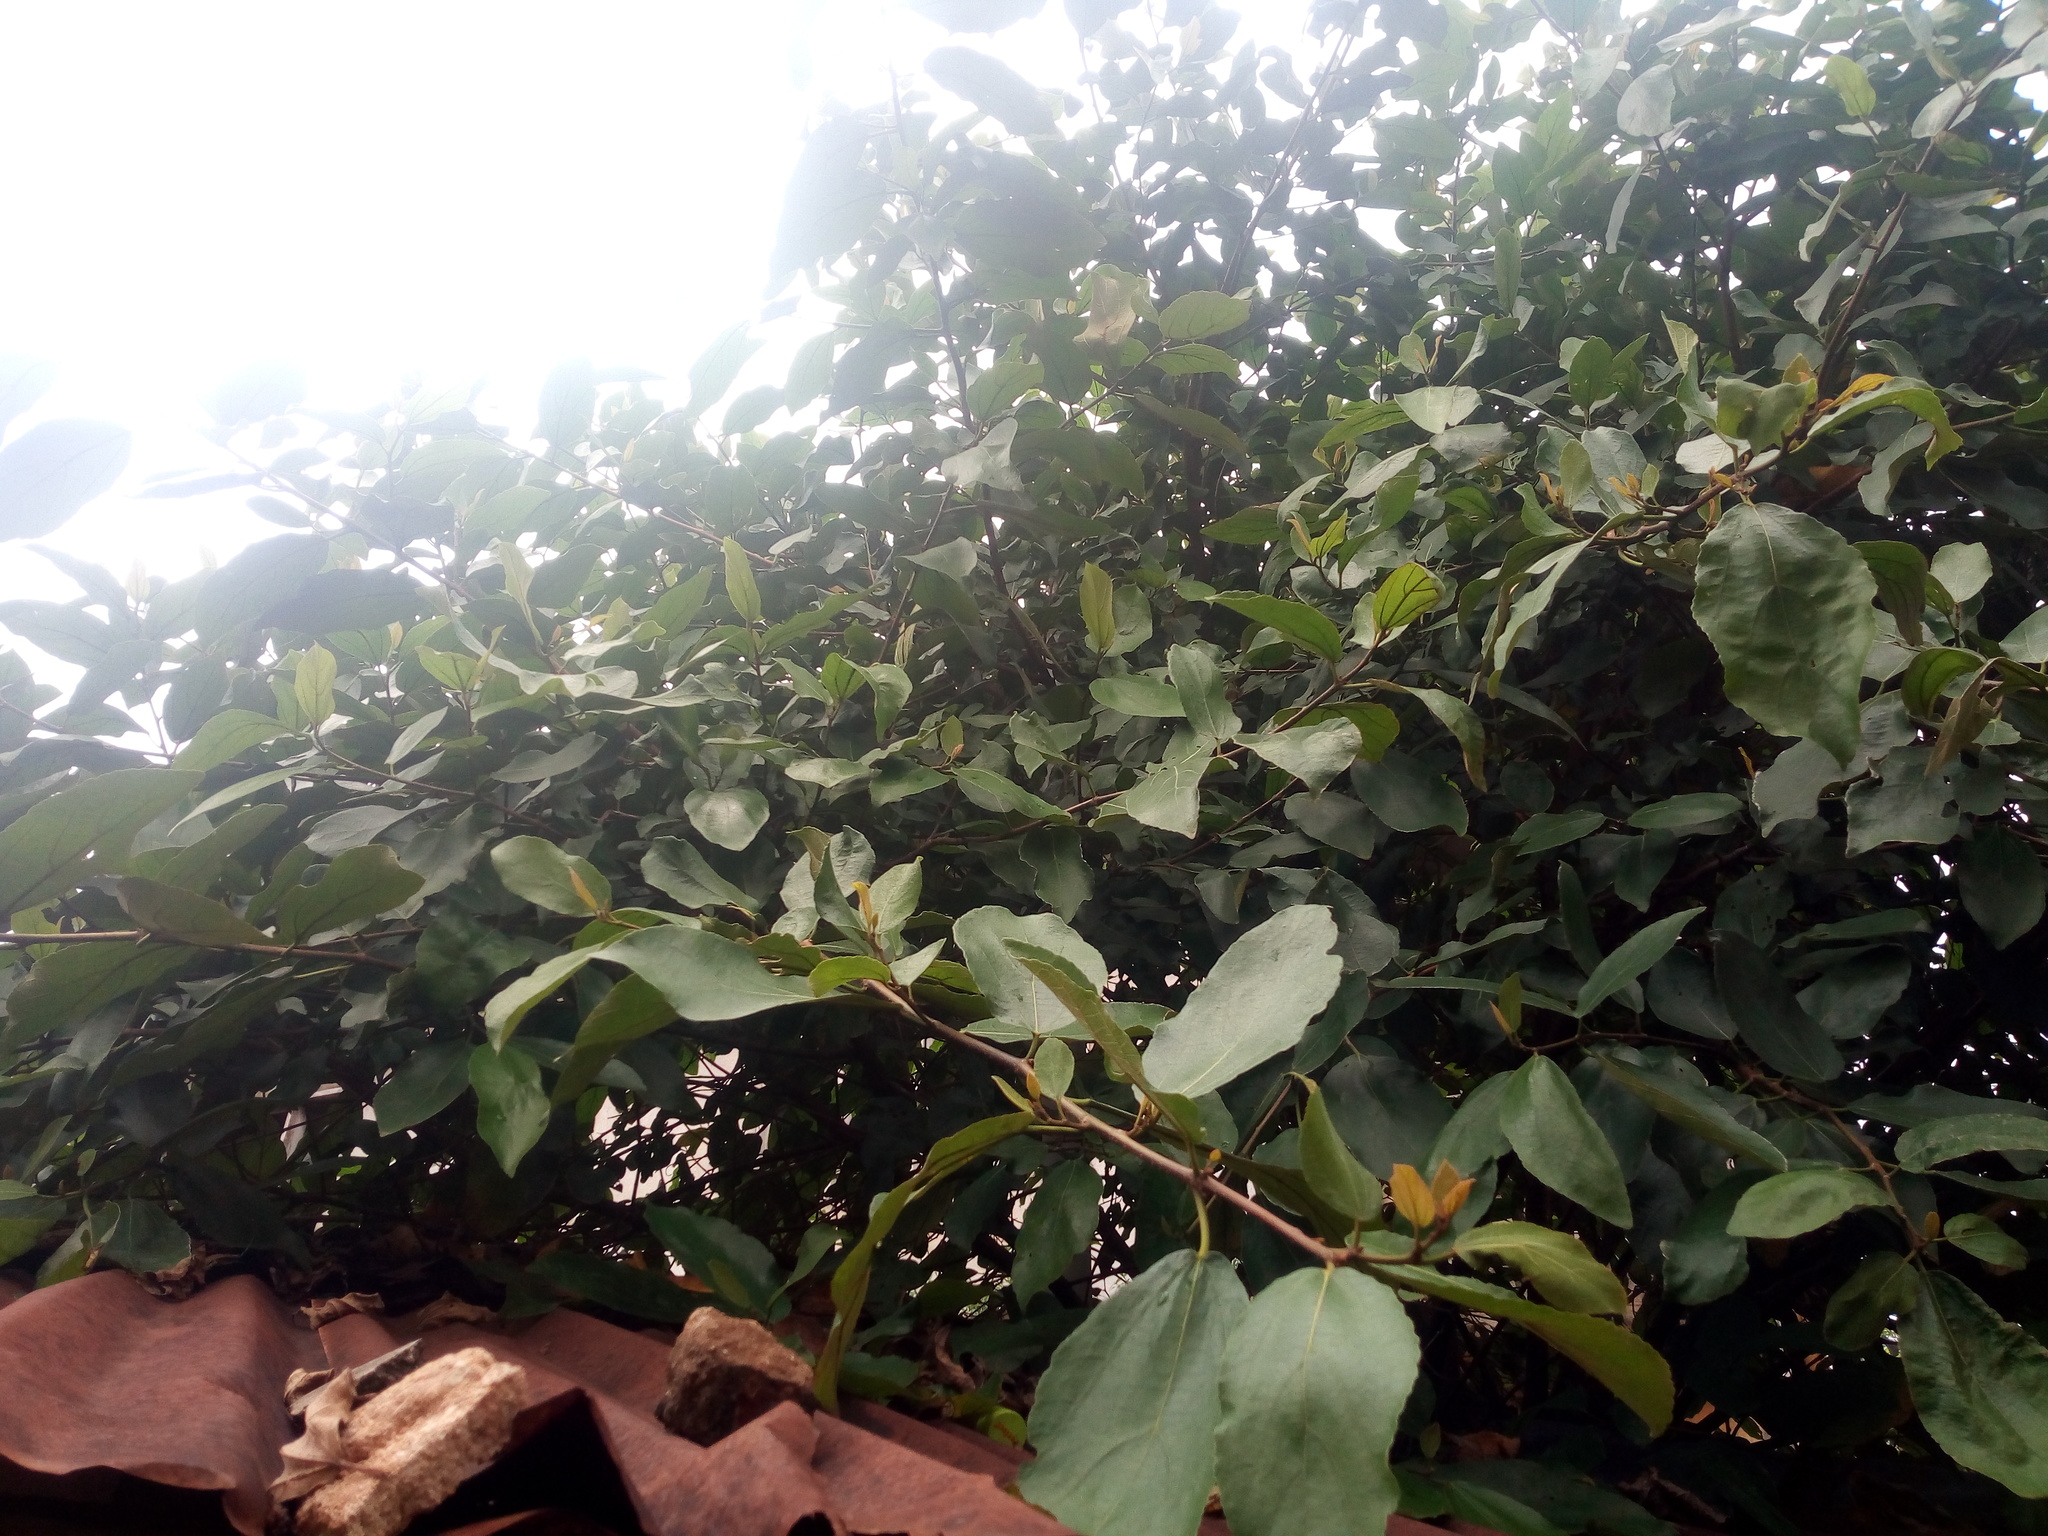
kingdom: Plantae
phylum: Tracheophyta
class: Magnoliopsida
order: Rosales
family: Moraceae
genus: Ficus
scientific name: Ficus exasperata
